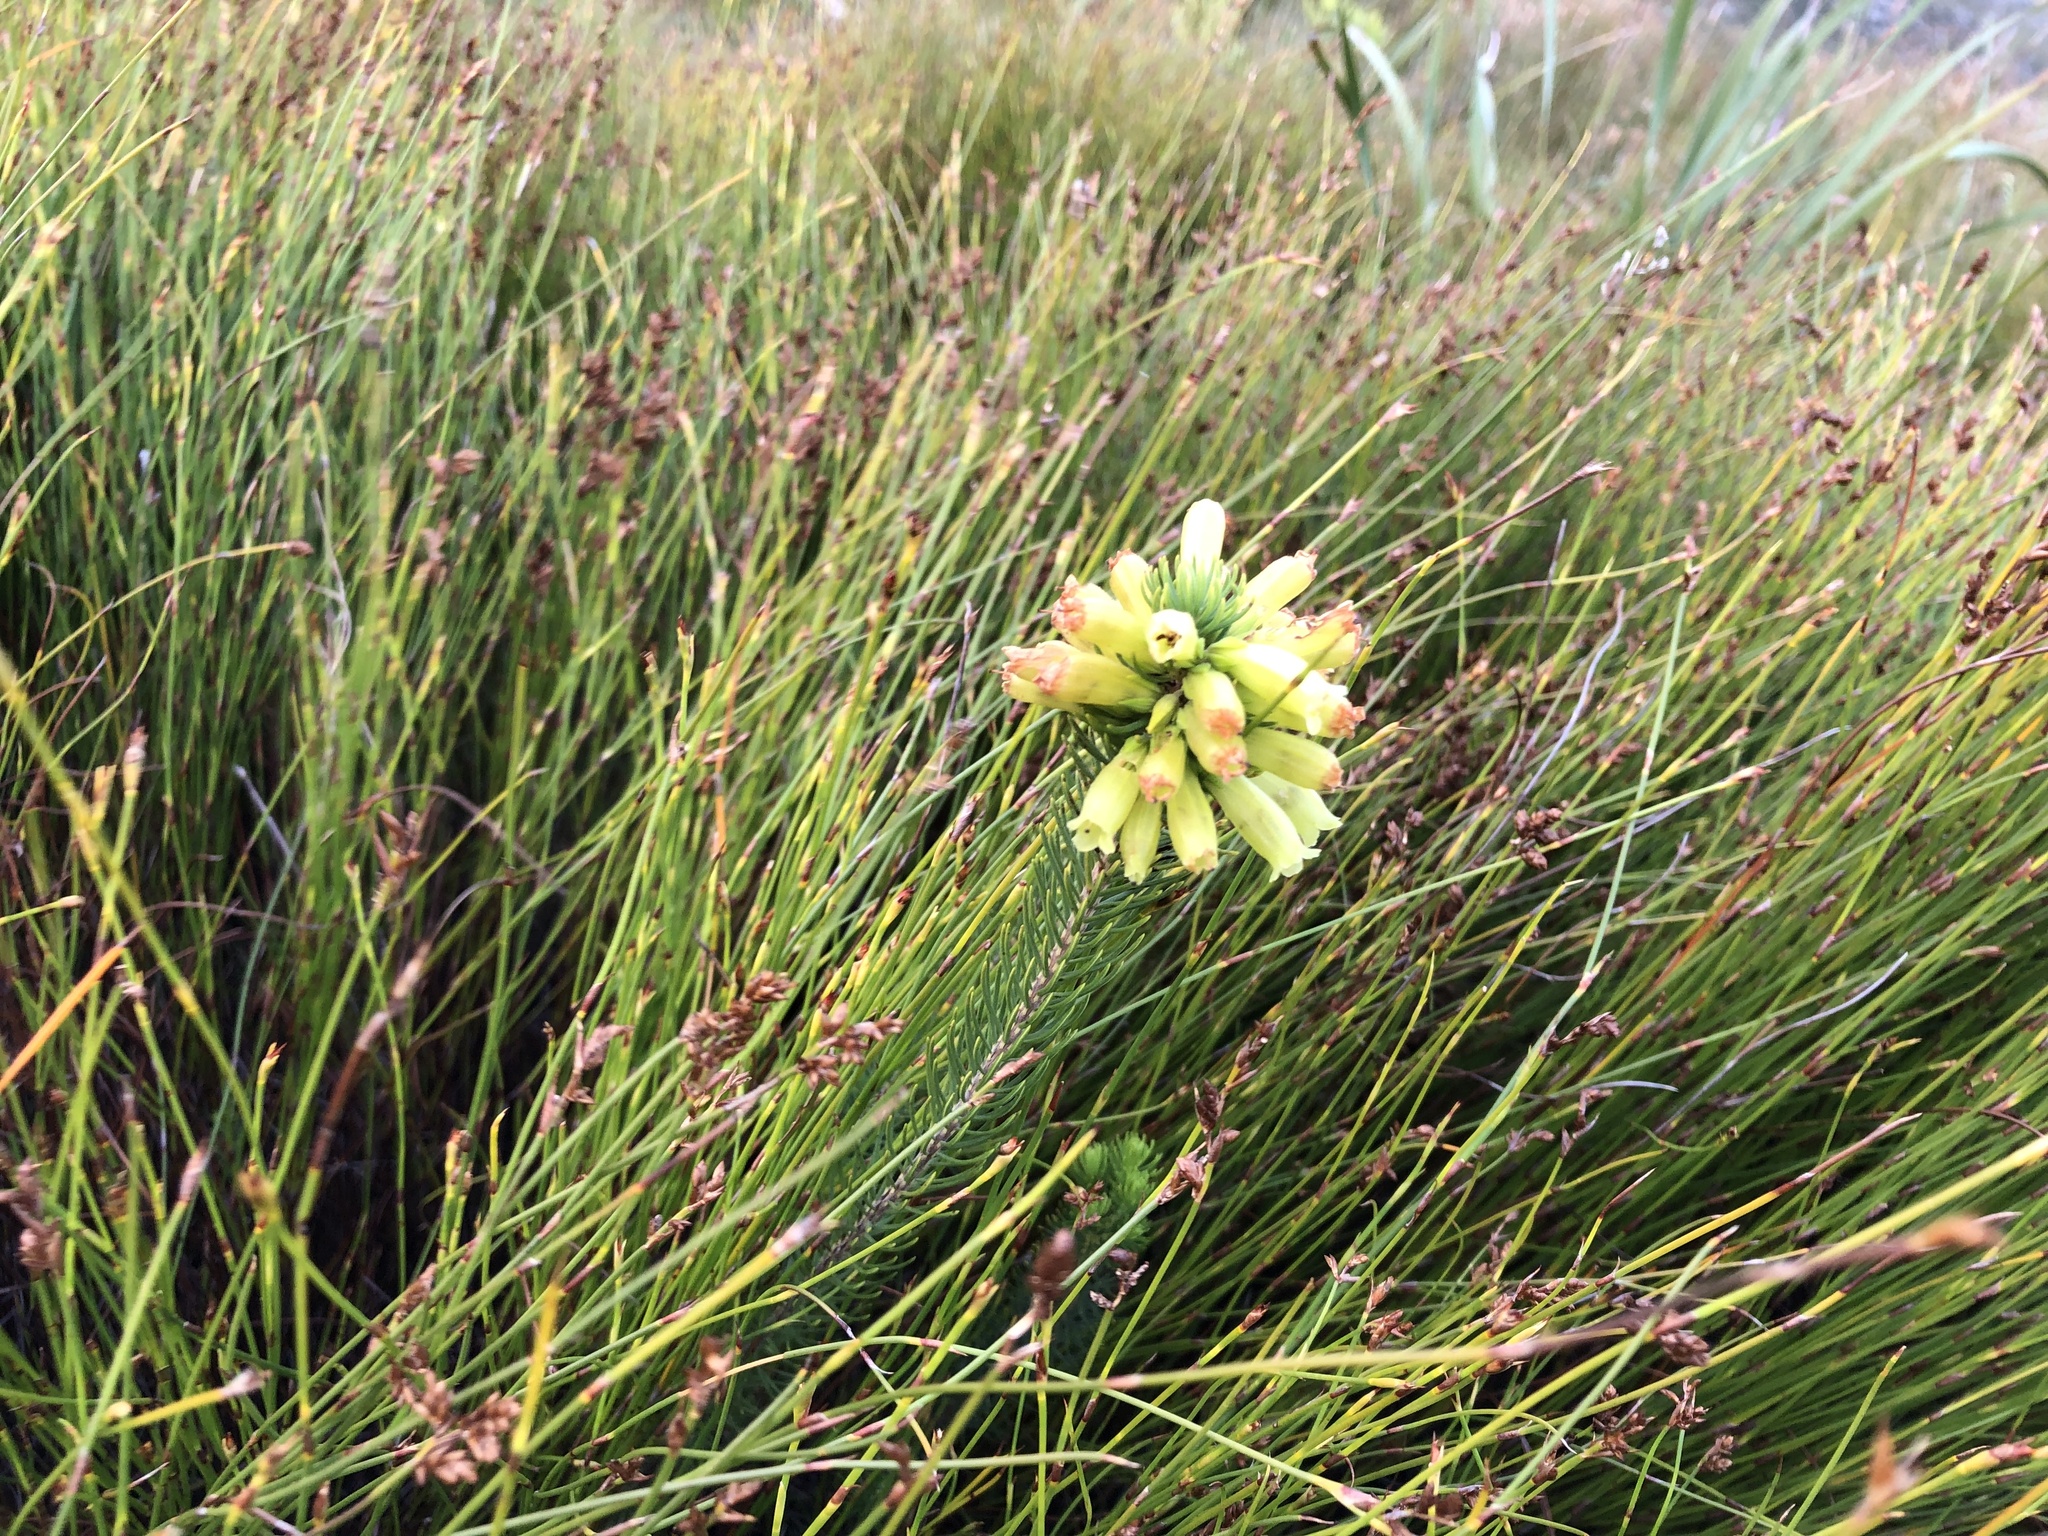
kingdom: Plantae
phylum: Tracheophyta
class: Magnoliopsida
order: Ericales
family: Ericaceae
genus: Erica
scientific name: Erica viscaria
